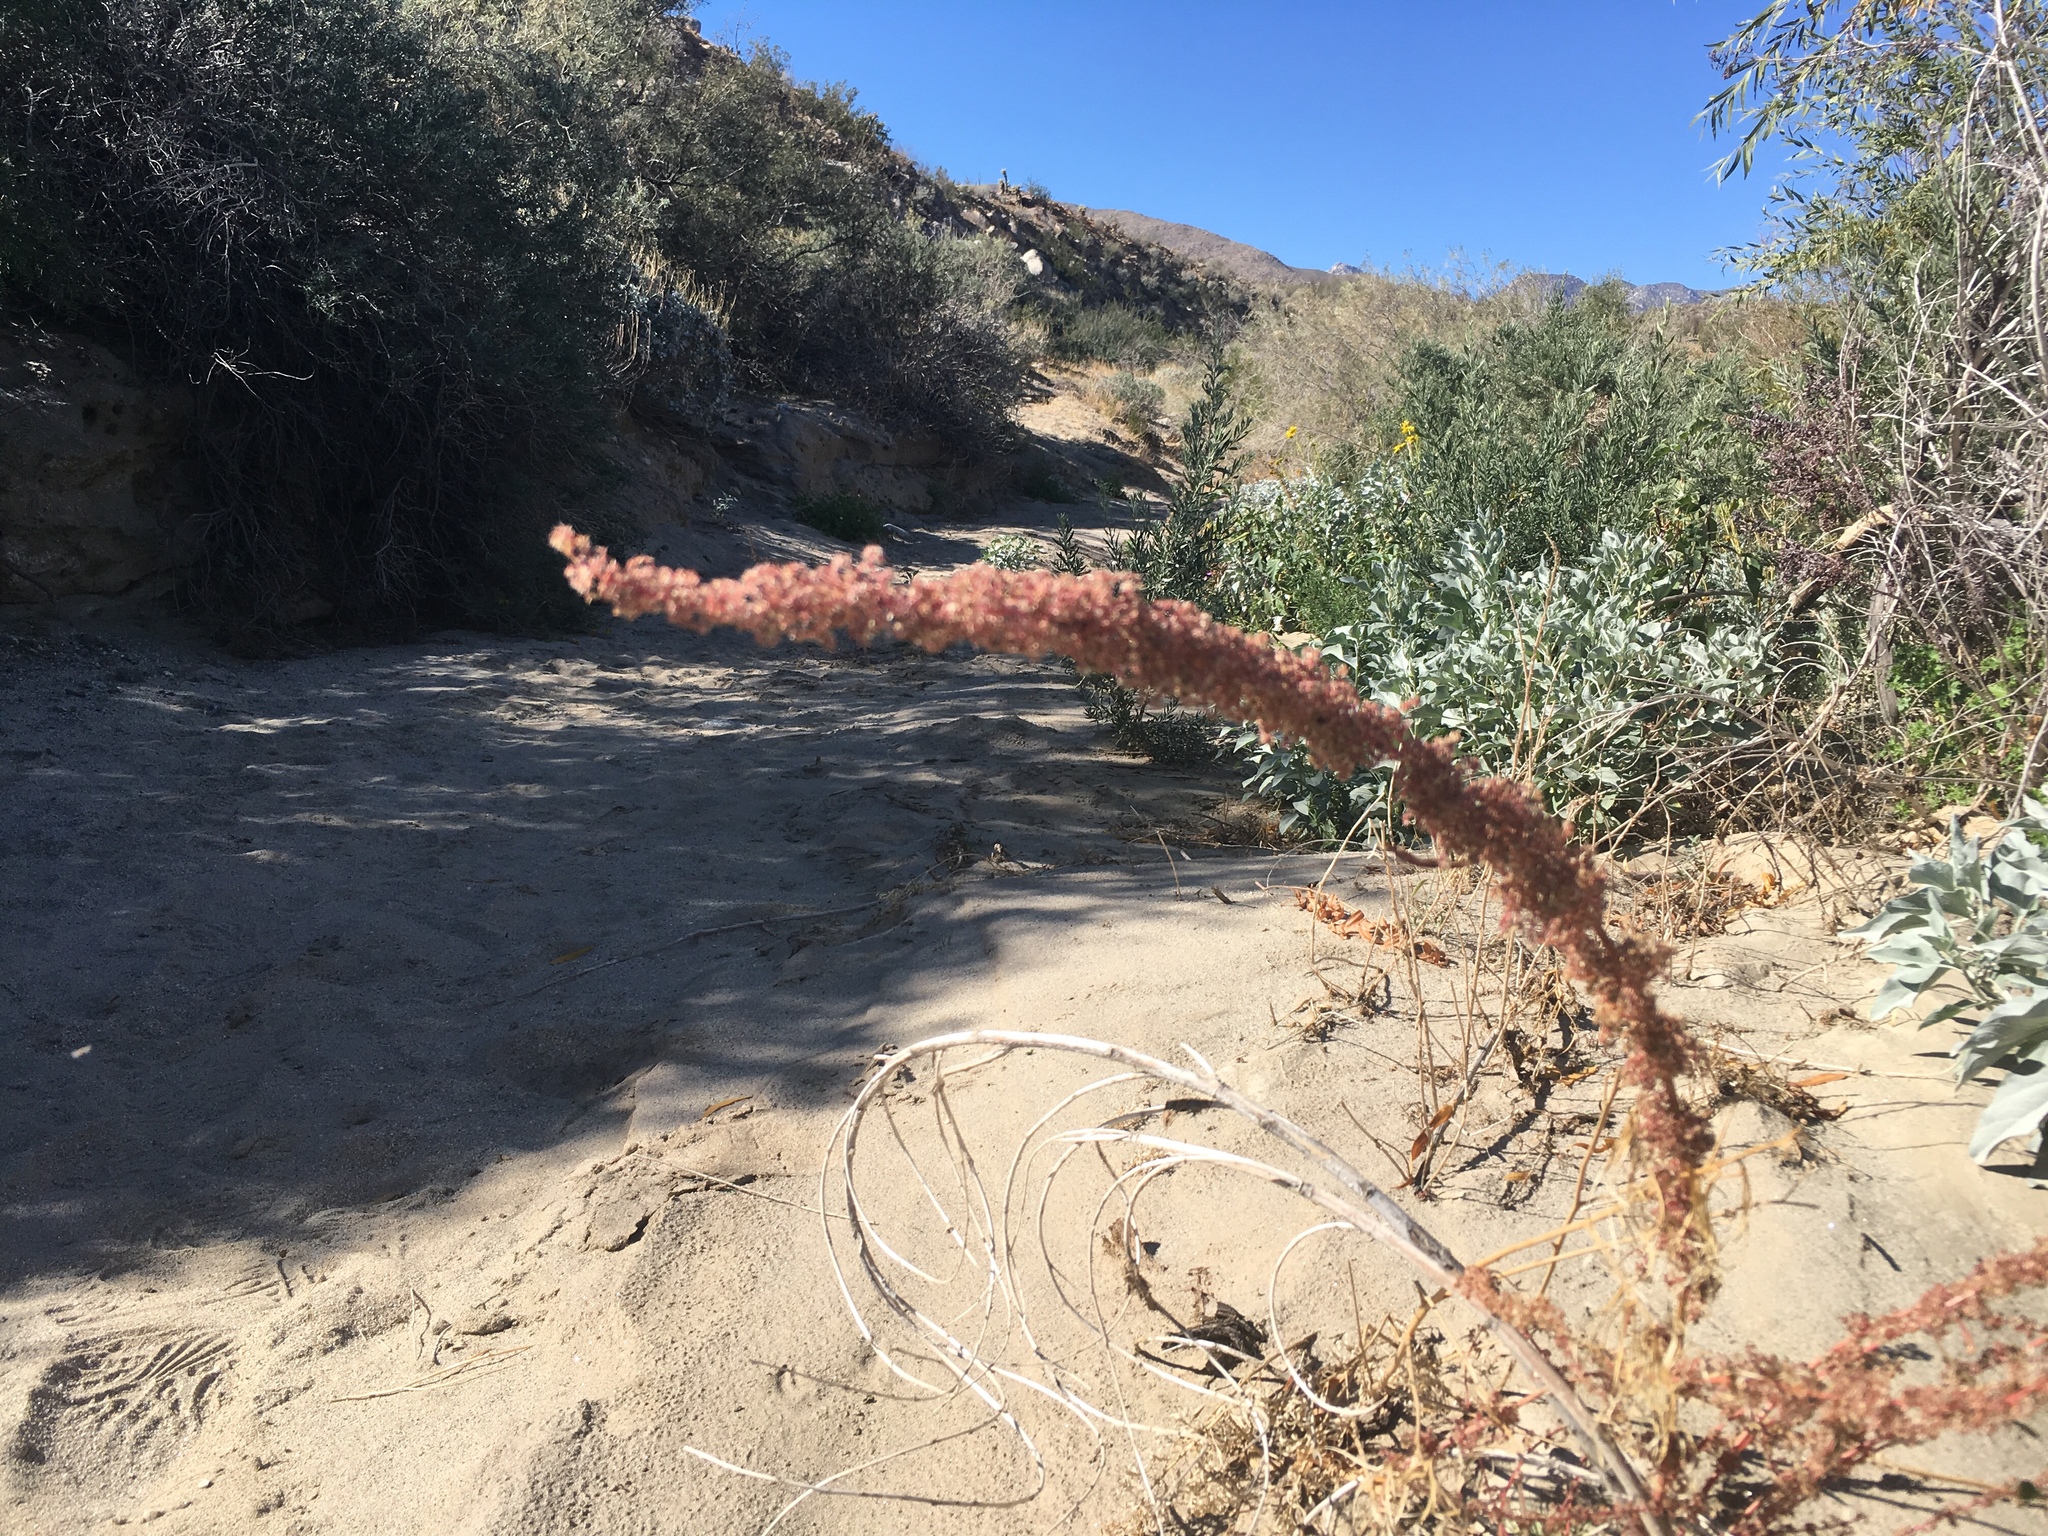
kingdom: Plantae
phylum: Tracheophyta
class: Magnoliopsida
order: Caryophyllales
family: Amaranthaceae
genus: Amaranthus
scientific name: Amaranthus fimbriatus
